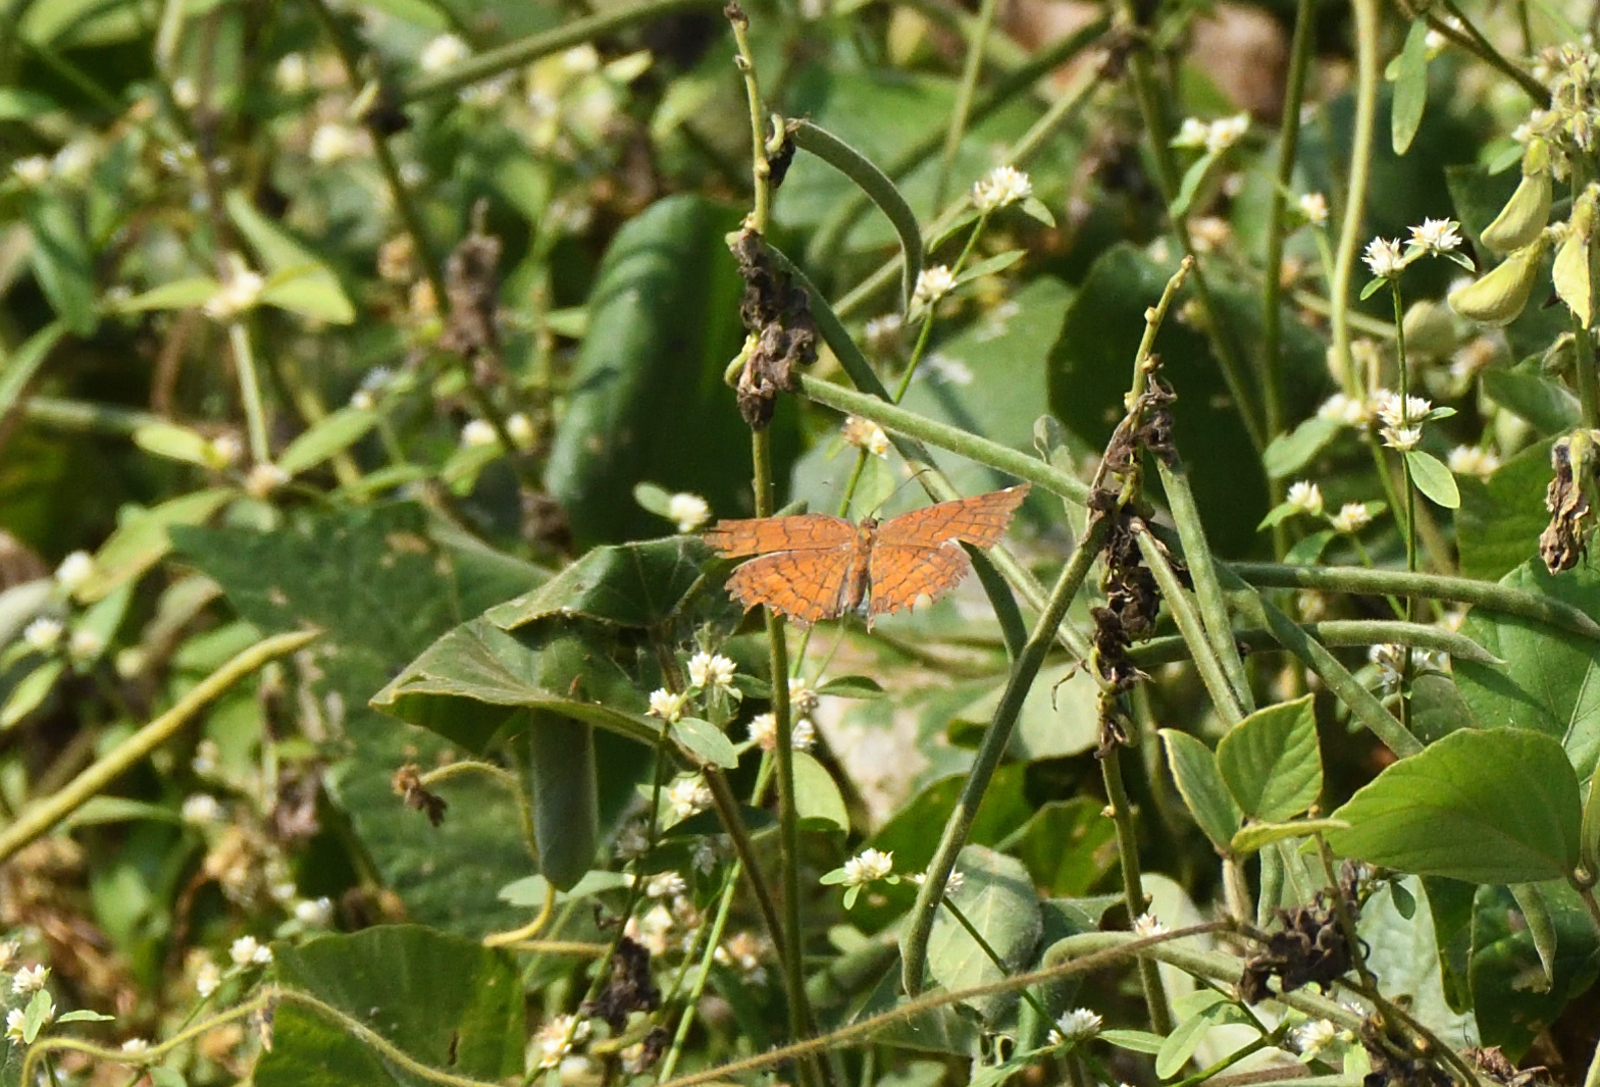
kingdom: Animalia
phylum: Arthropoda
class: Insecta
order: Lepidoptera
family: Nymphalidae
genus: Ariadne
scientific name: Ariadne ariadne
